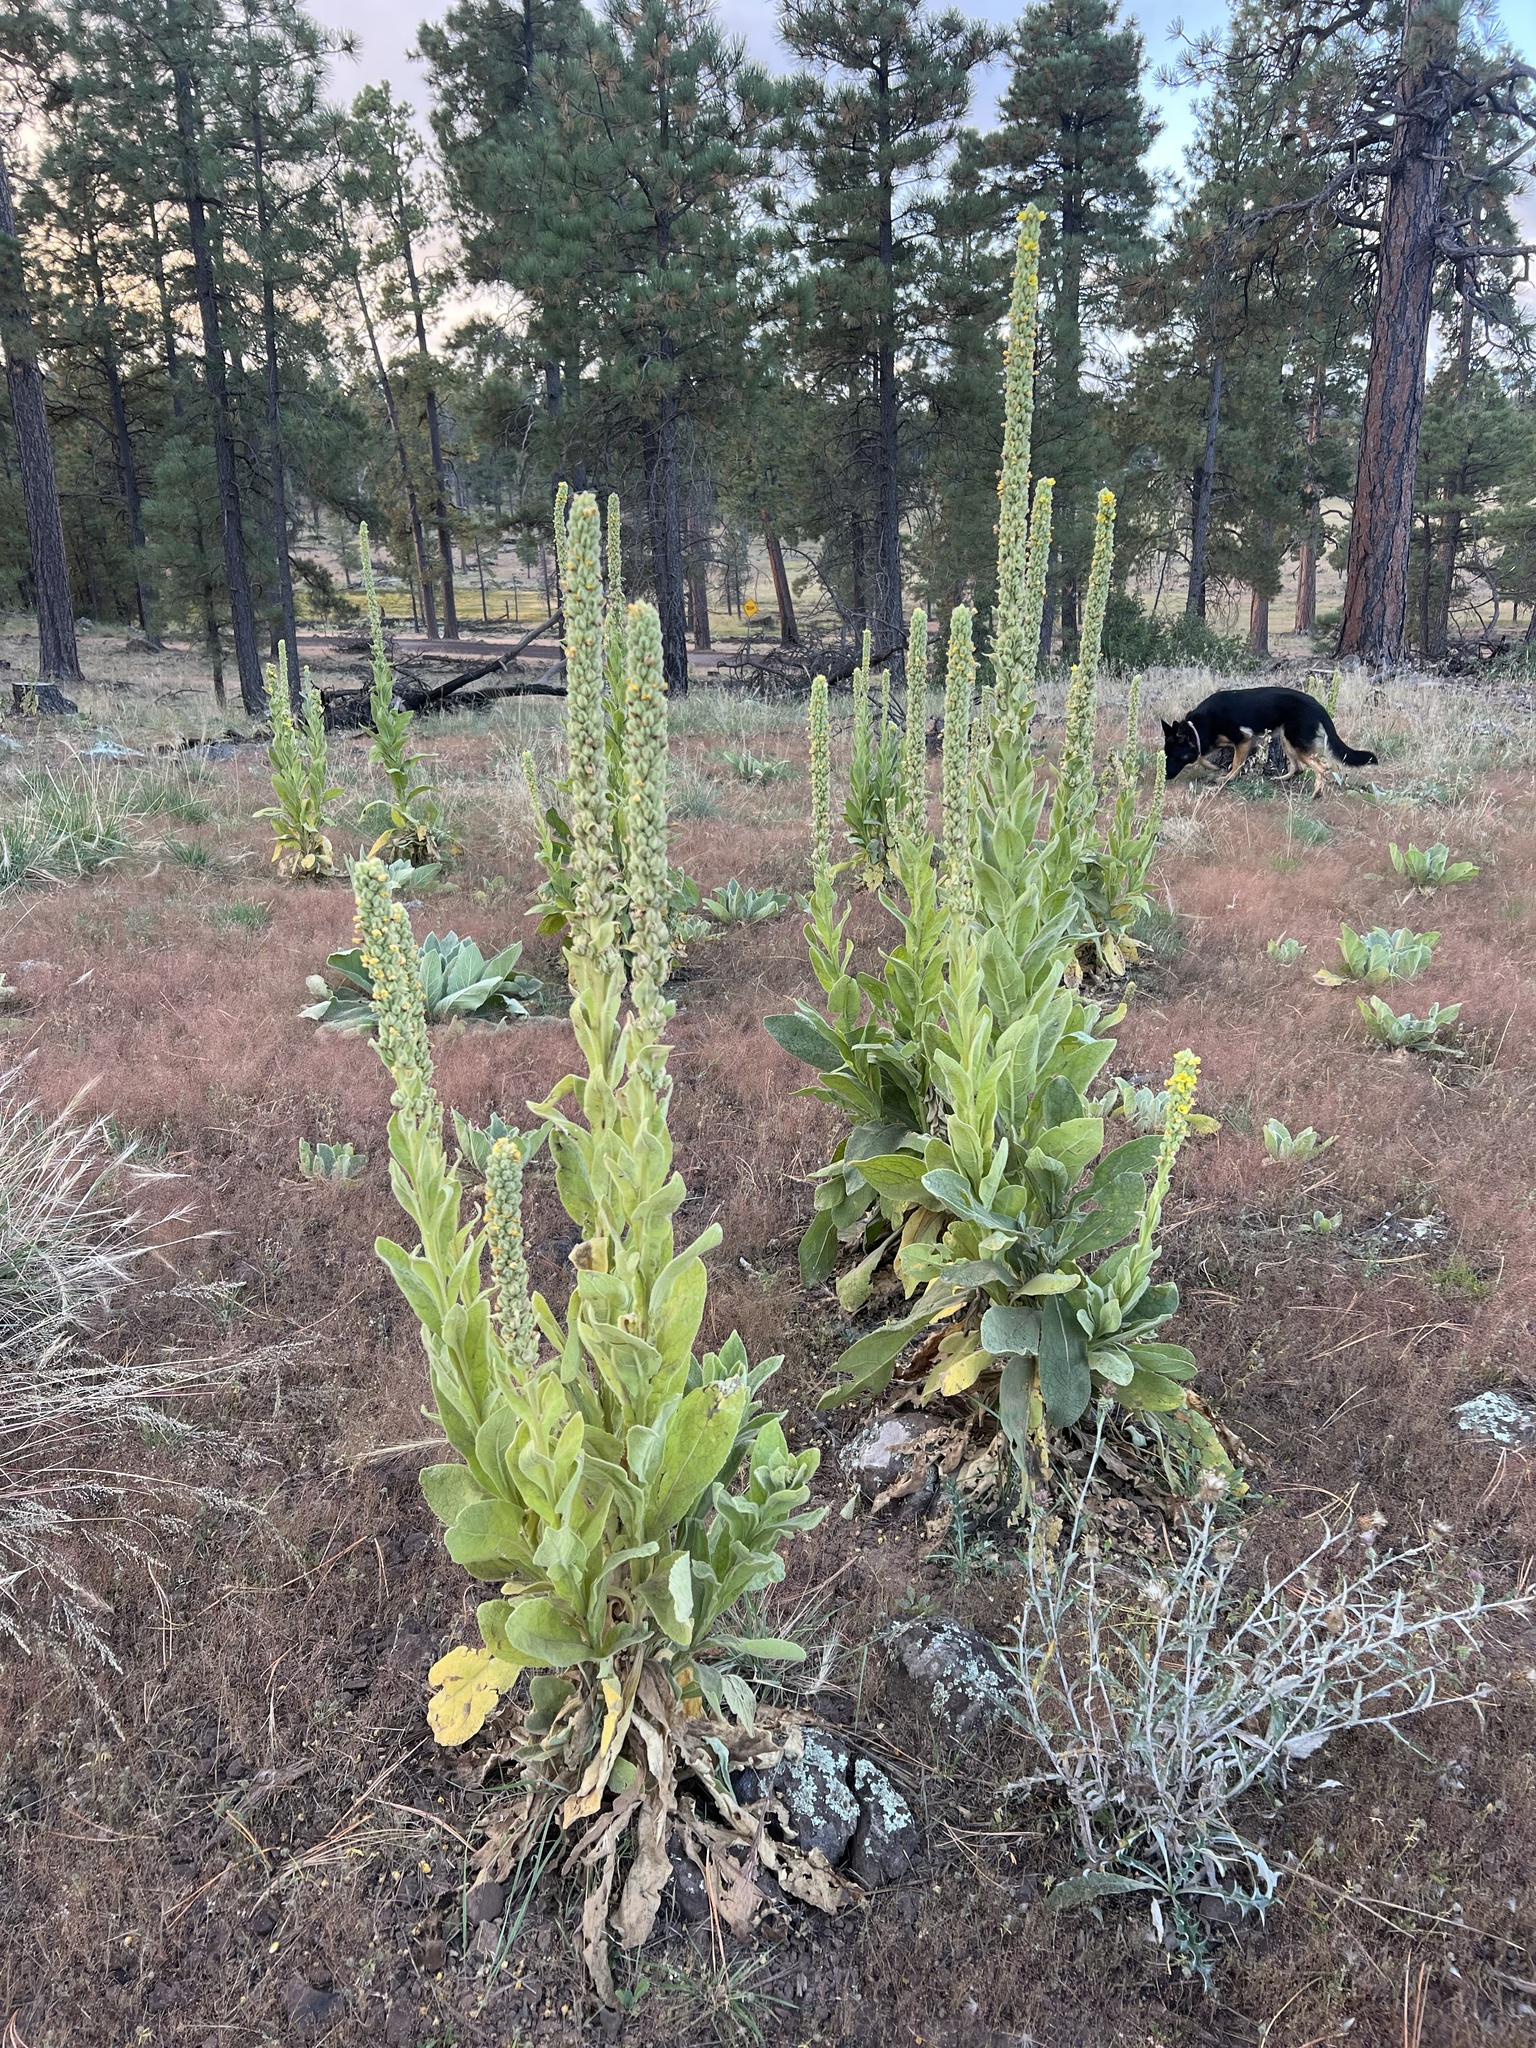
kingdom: Plantae
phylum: Tracheophyta
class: Magnoliopsida
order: Lamiales
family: Scrophulariaceae
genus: Verbascum
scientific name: Verbascum thapsus
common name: Common mullein
